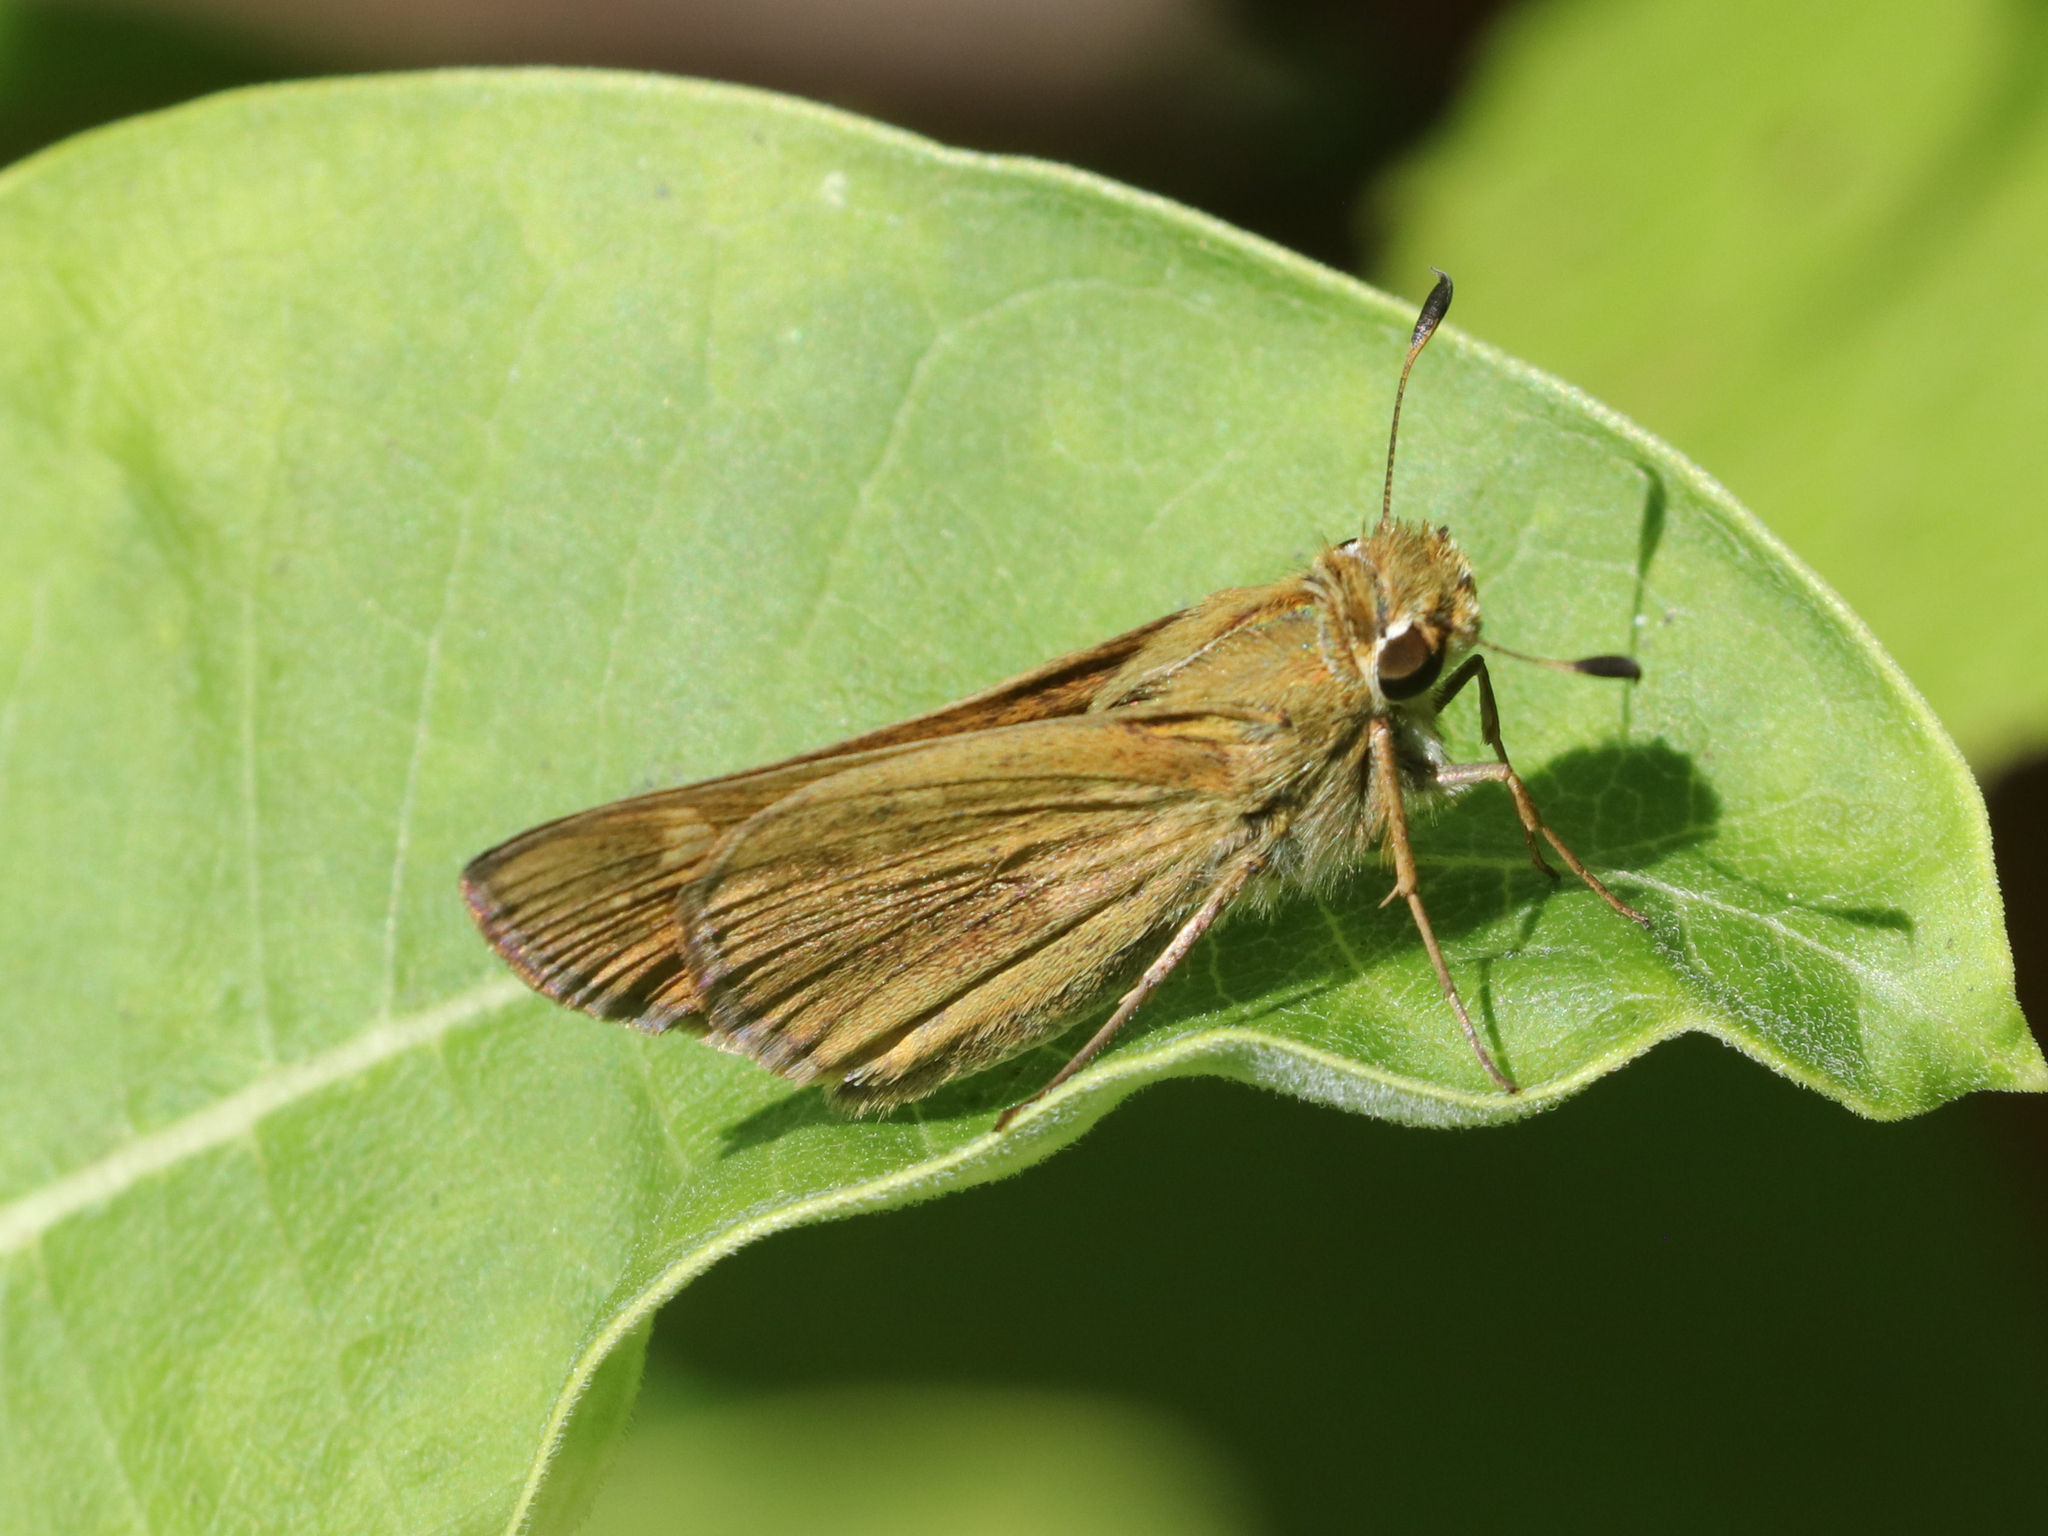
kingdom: Animalia
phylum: Arthropoda
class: Insecta
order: Lepidoptera
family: Hesperiidae
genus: Atalopedes
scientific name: Atalopedes
